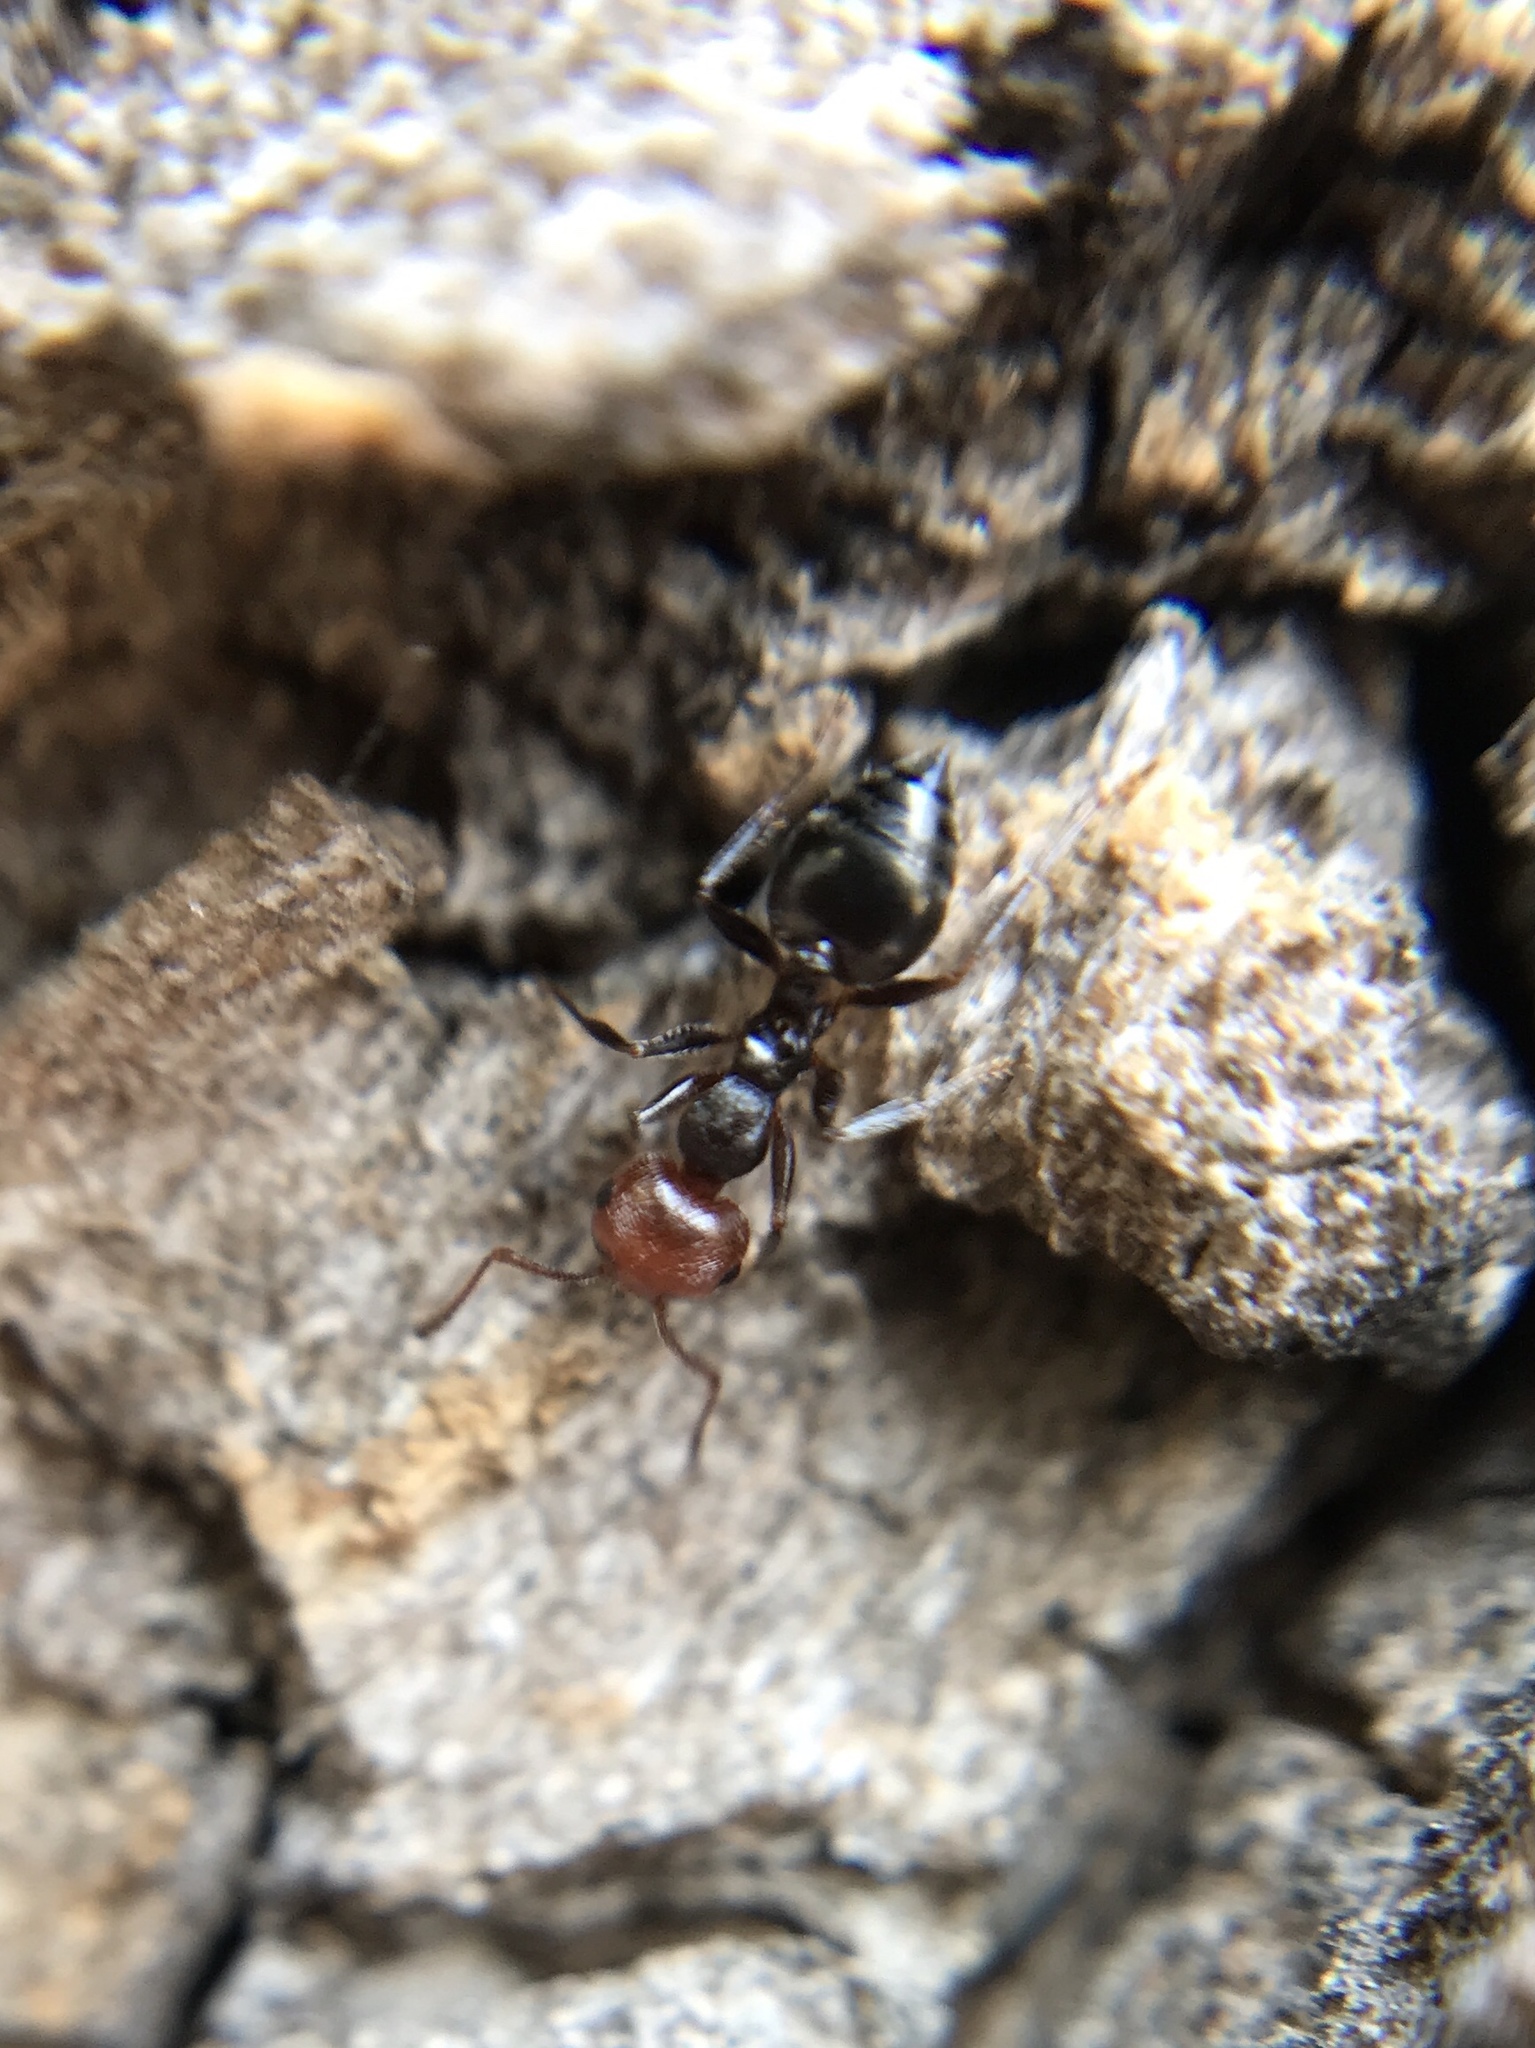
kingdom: Animalia
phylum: Arthropoda
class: Insecta
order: Hymenoptera
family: Formicidae
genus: Crematogaster
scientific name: Crematogaster scutellaris
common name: Fourmi du liège
